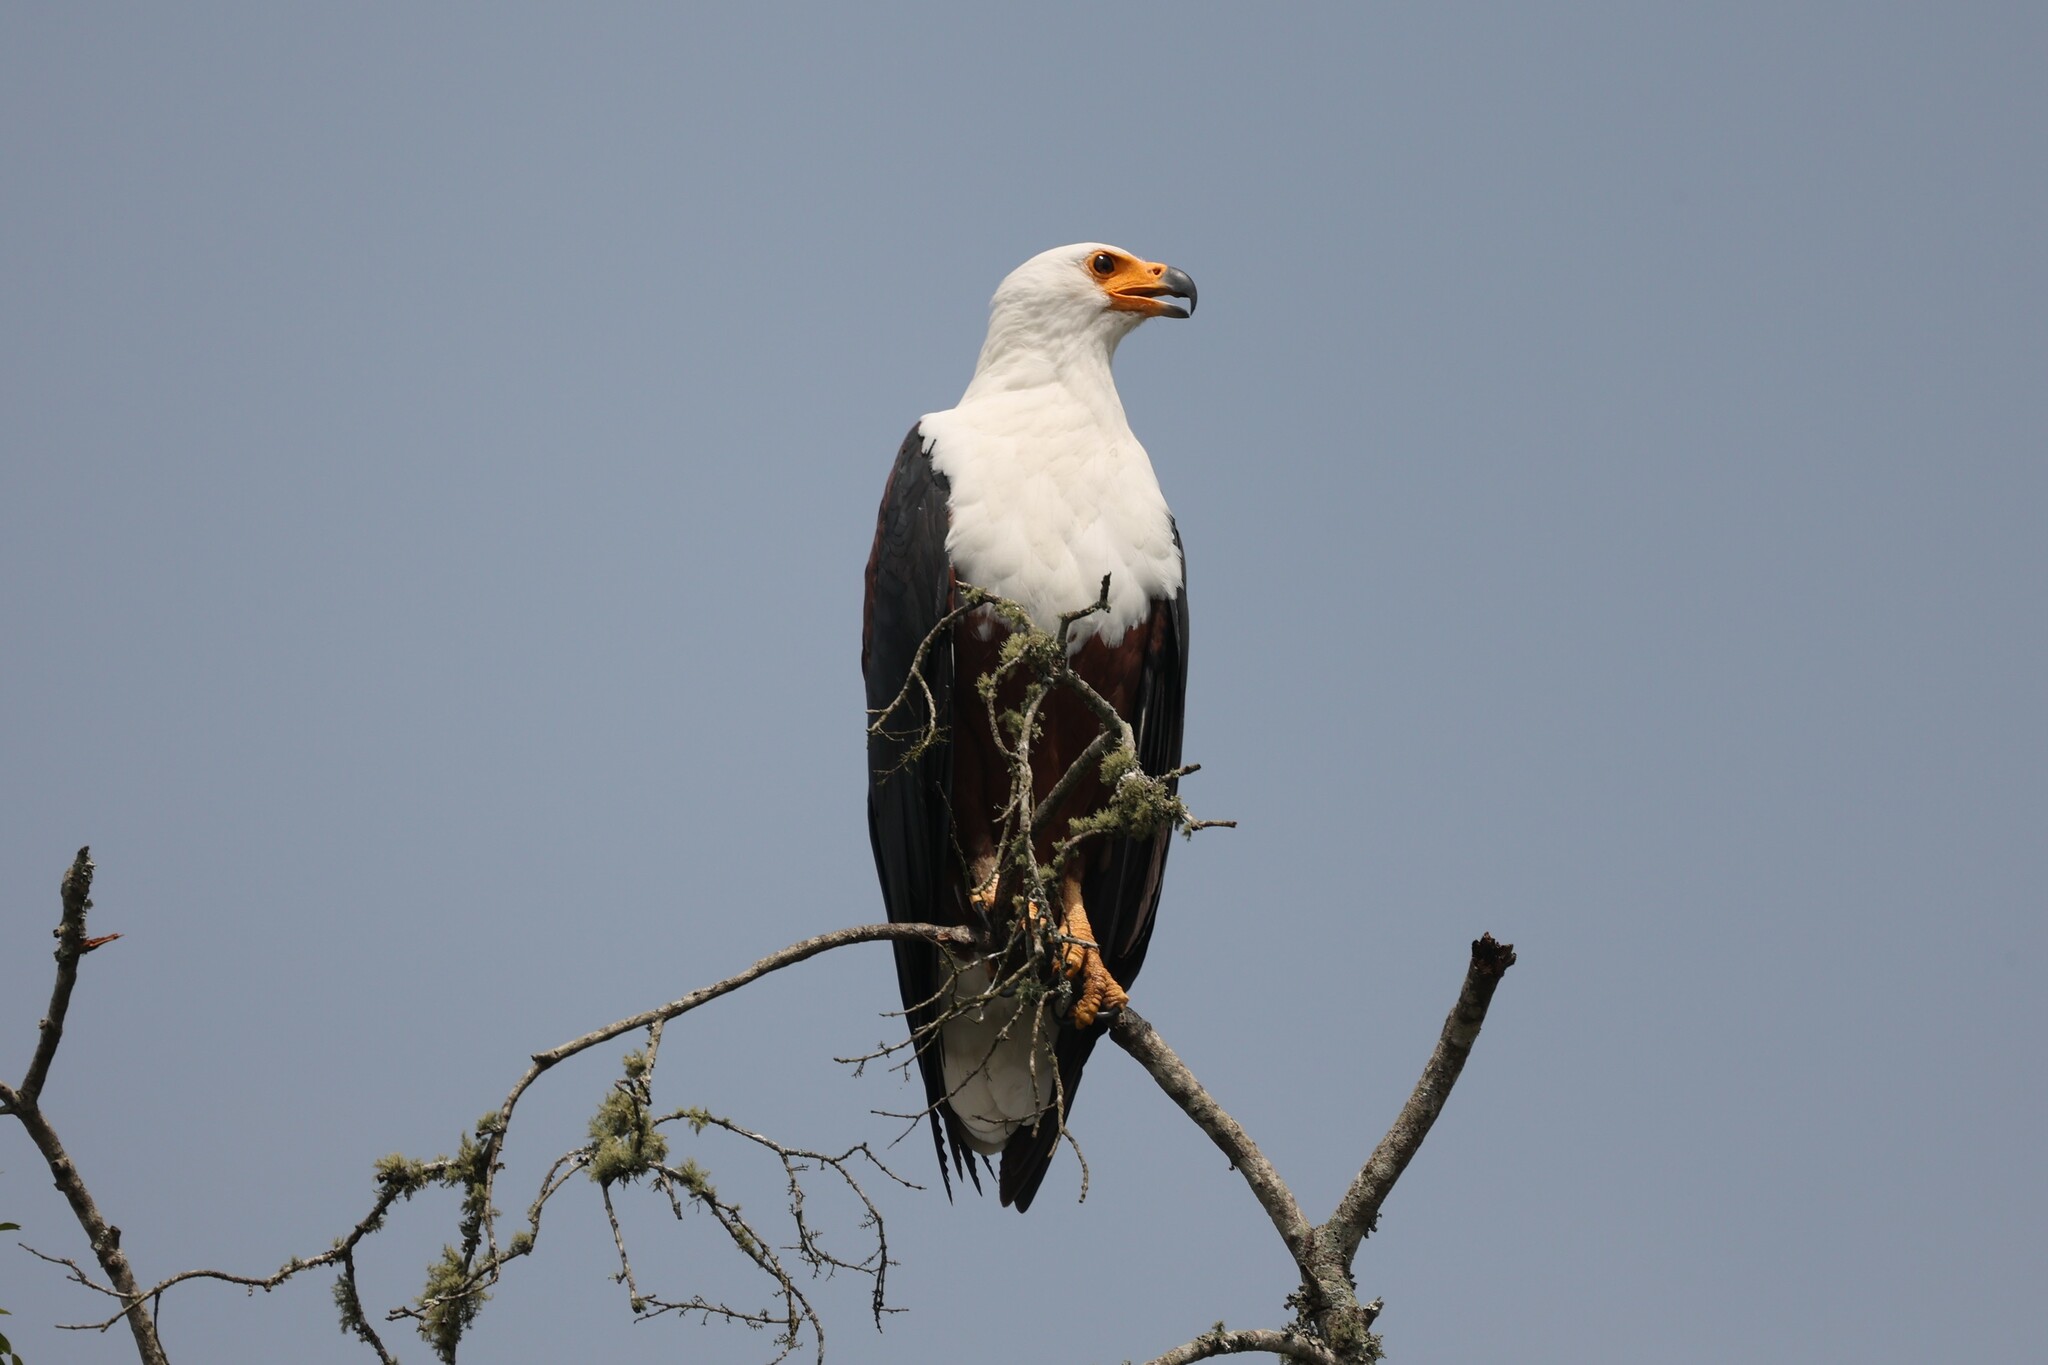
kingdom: Animalia
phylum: Chordata
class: Aves
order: Accipitriformes
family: Accipitridae
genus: Haliaeetus
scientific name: Haliaeetus vocifer
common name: African fish eagle
